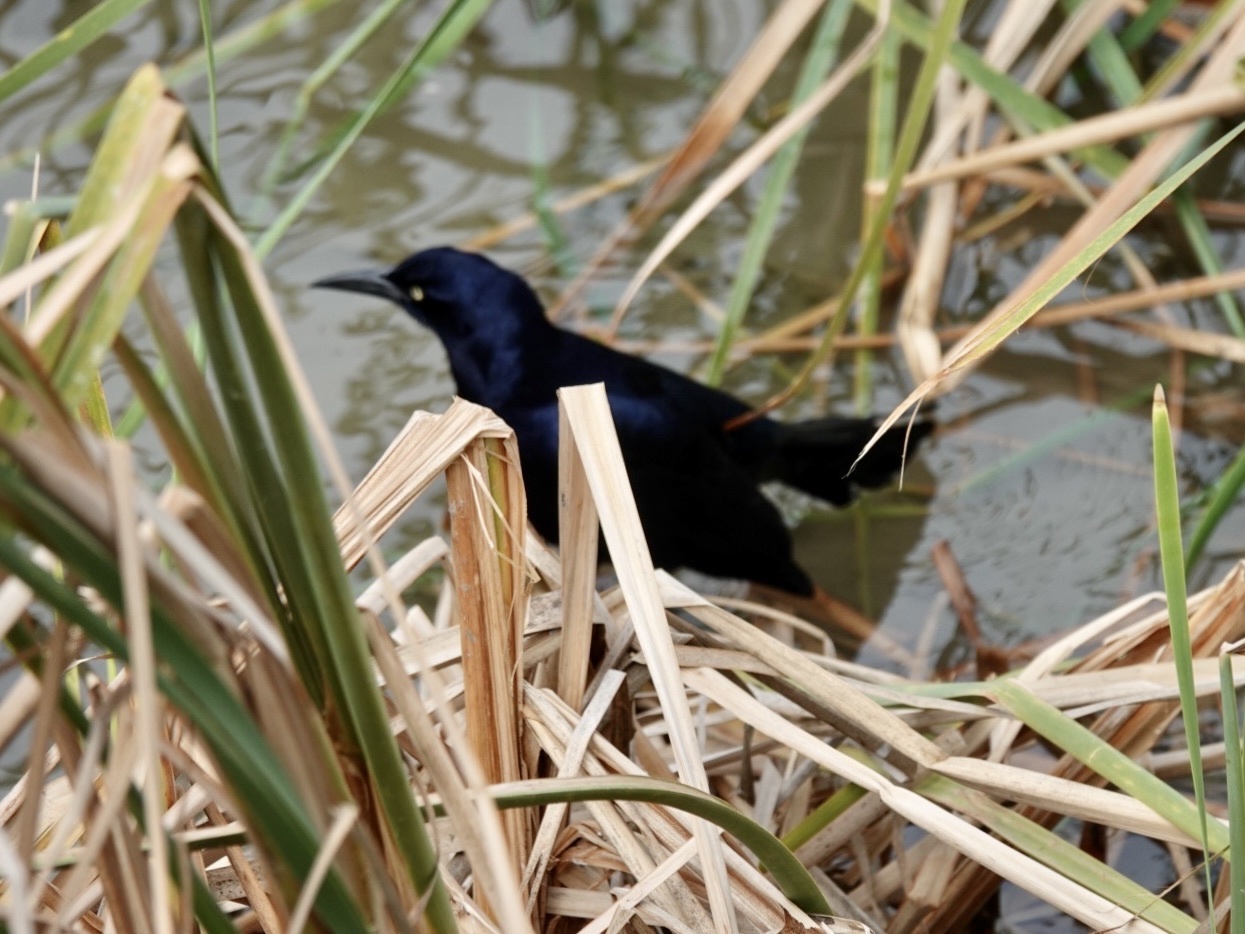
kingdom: Animalia
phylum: Chordata
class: Aves
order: Passeriformes
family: Icteridae
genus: Quiscalus
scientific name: Quiscalus mexicanus
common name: Great-tailed grackle
